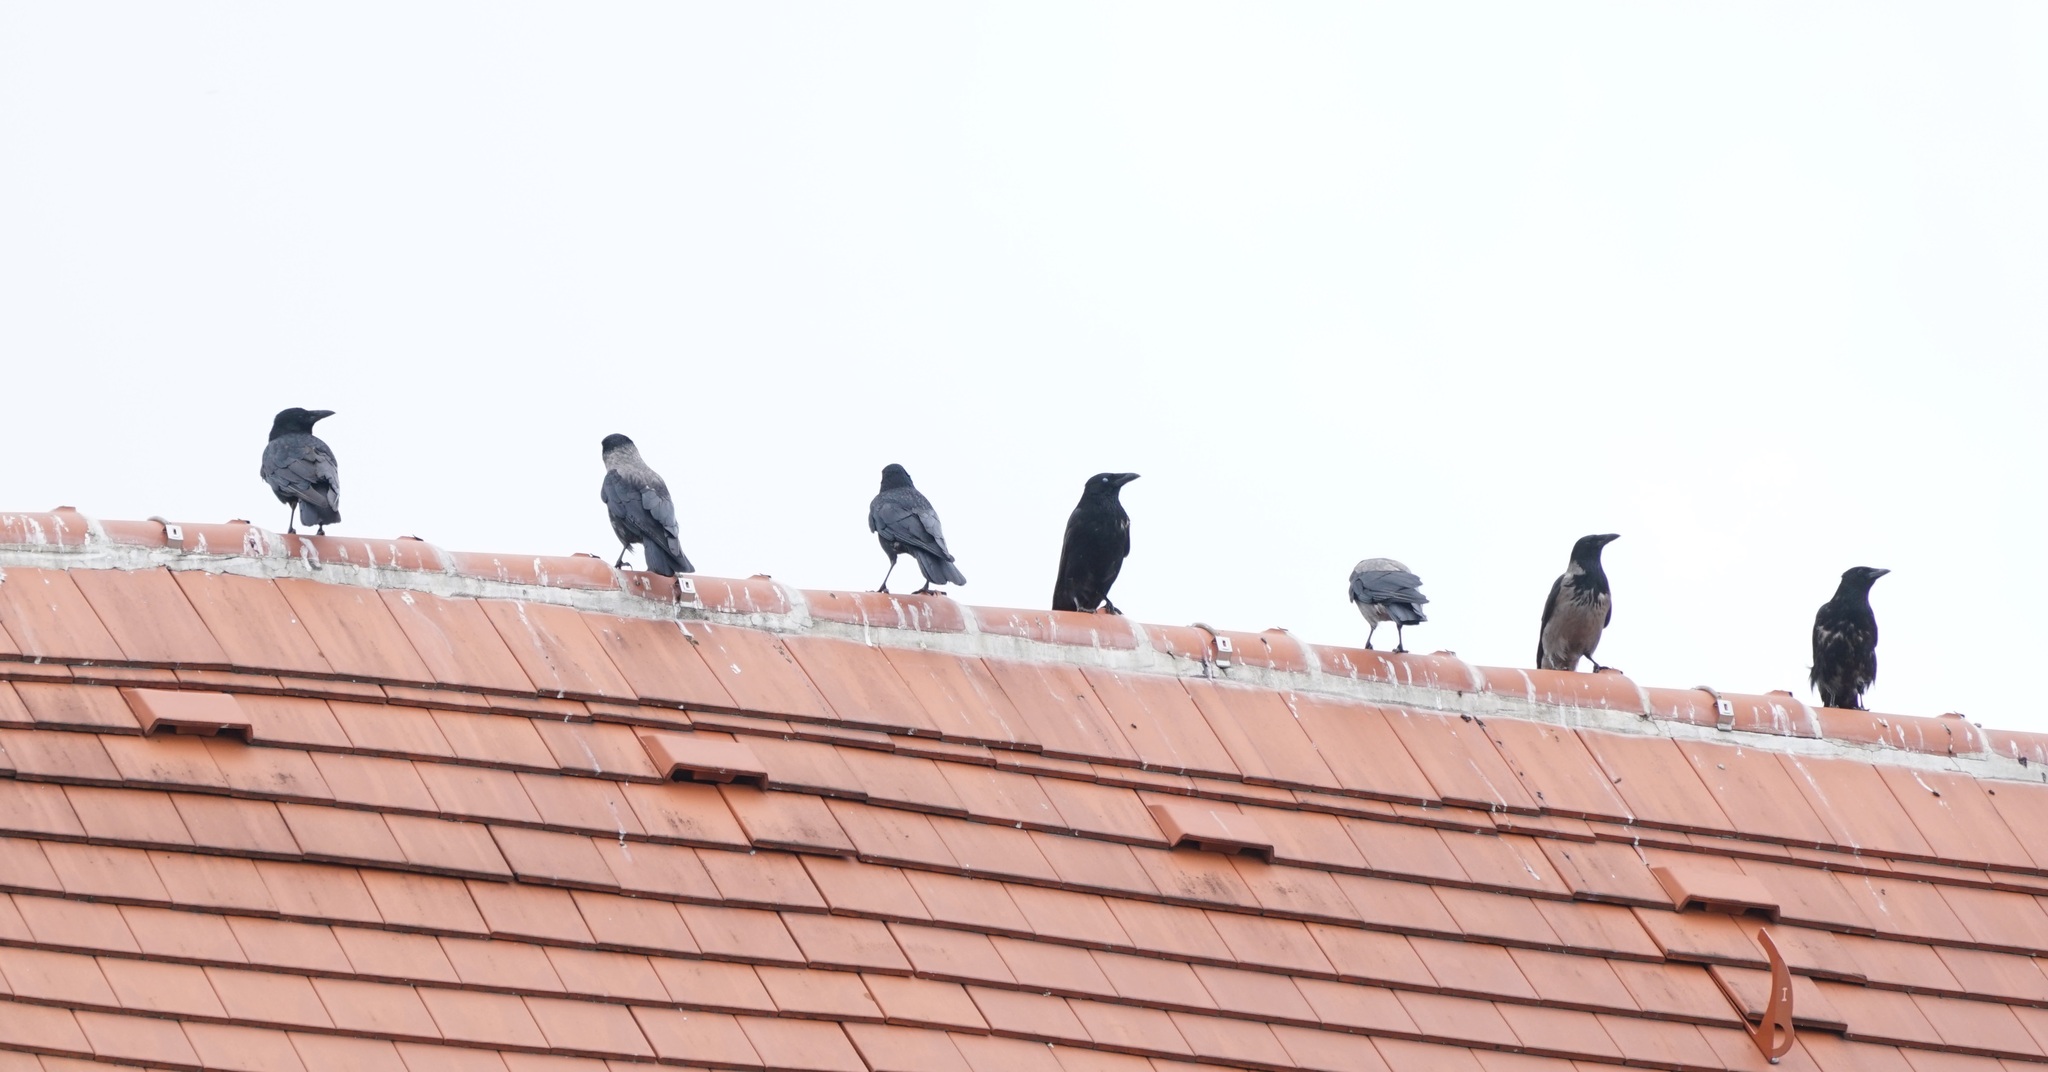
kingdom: Animalia
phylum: Chordata
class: Aves
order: Passeriformes
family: Corvidae
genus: Corvus
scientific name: Corvus cornix
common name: Hooded crow
